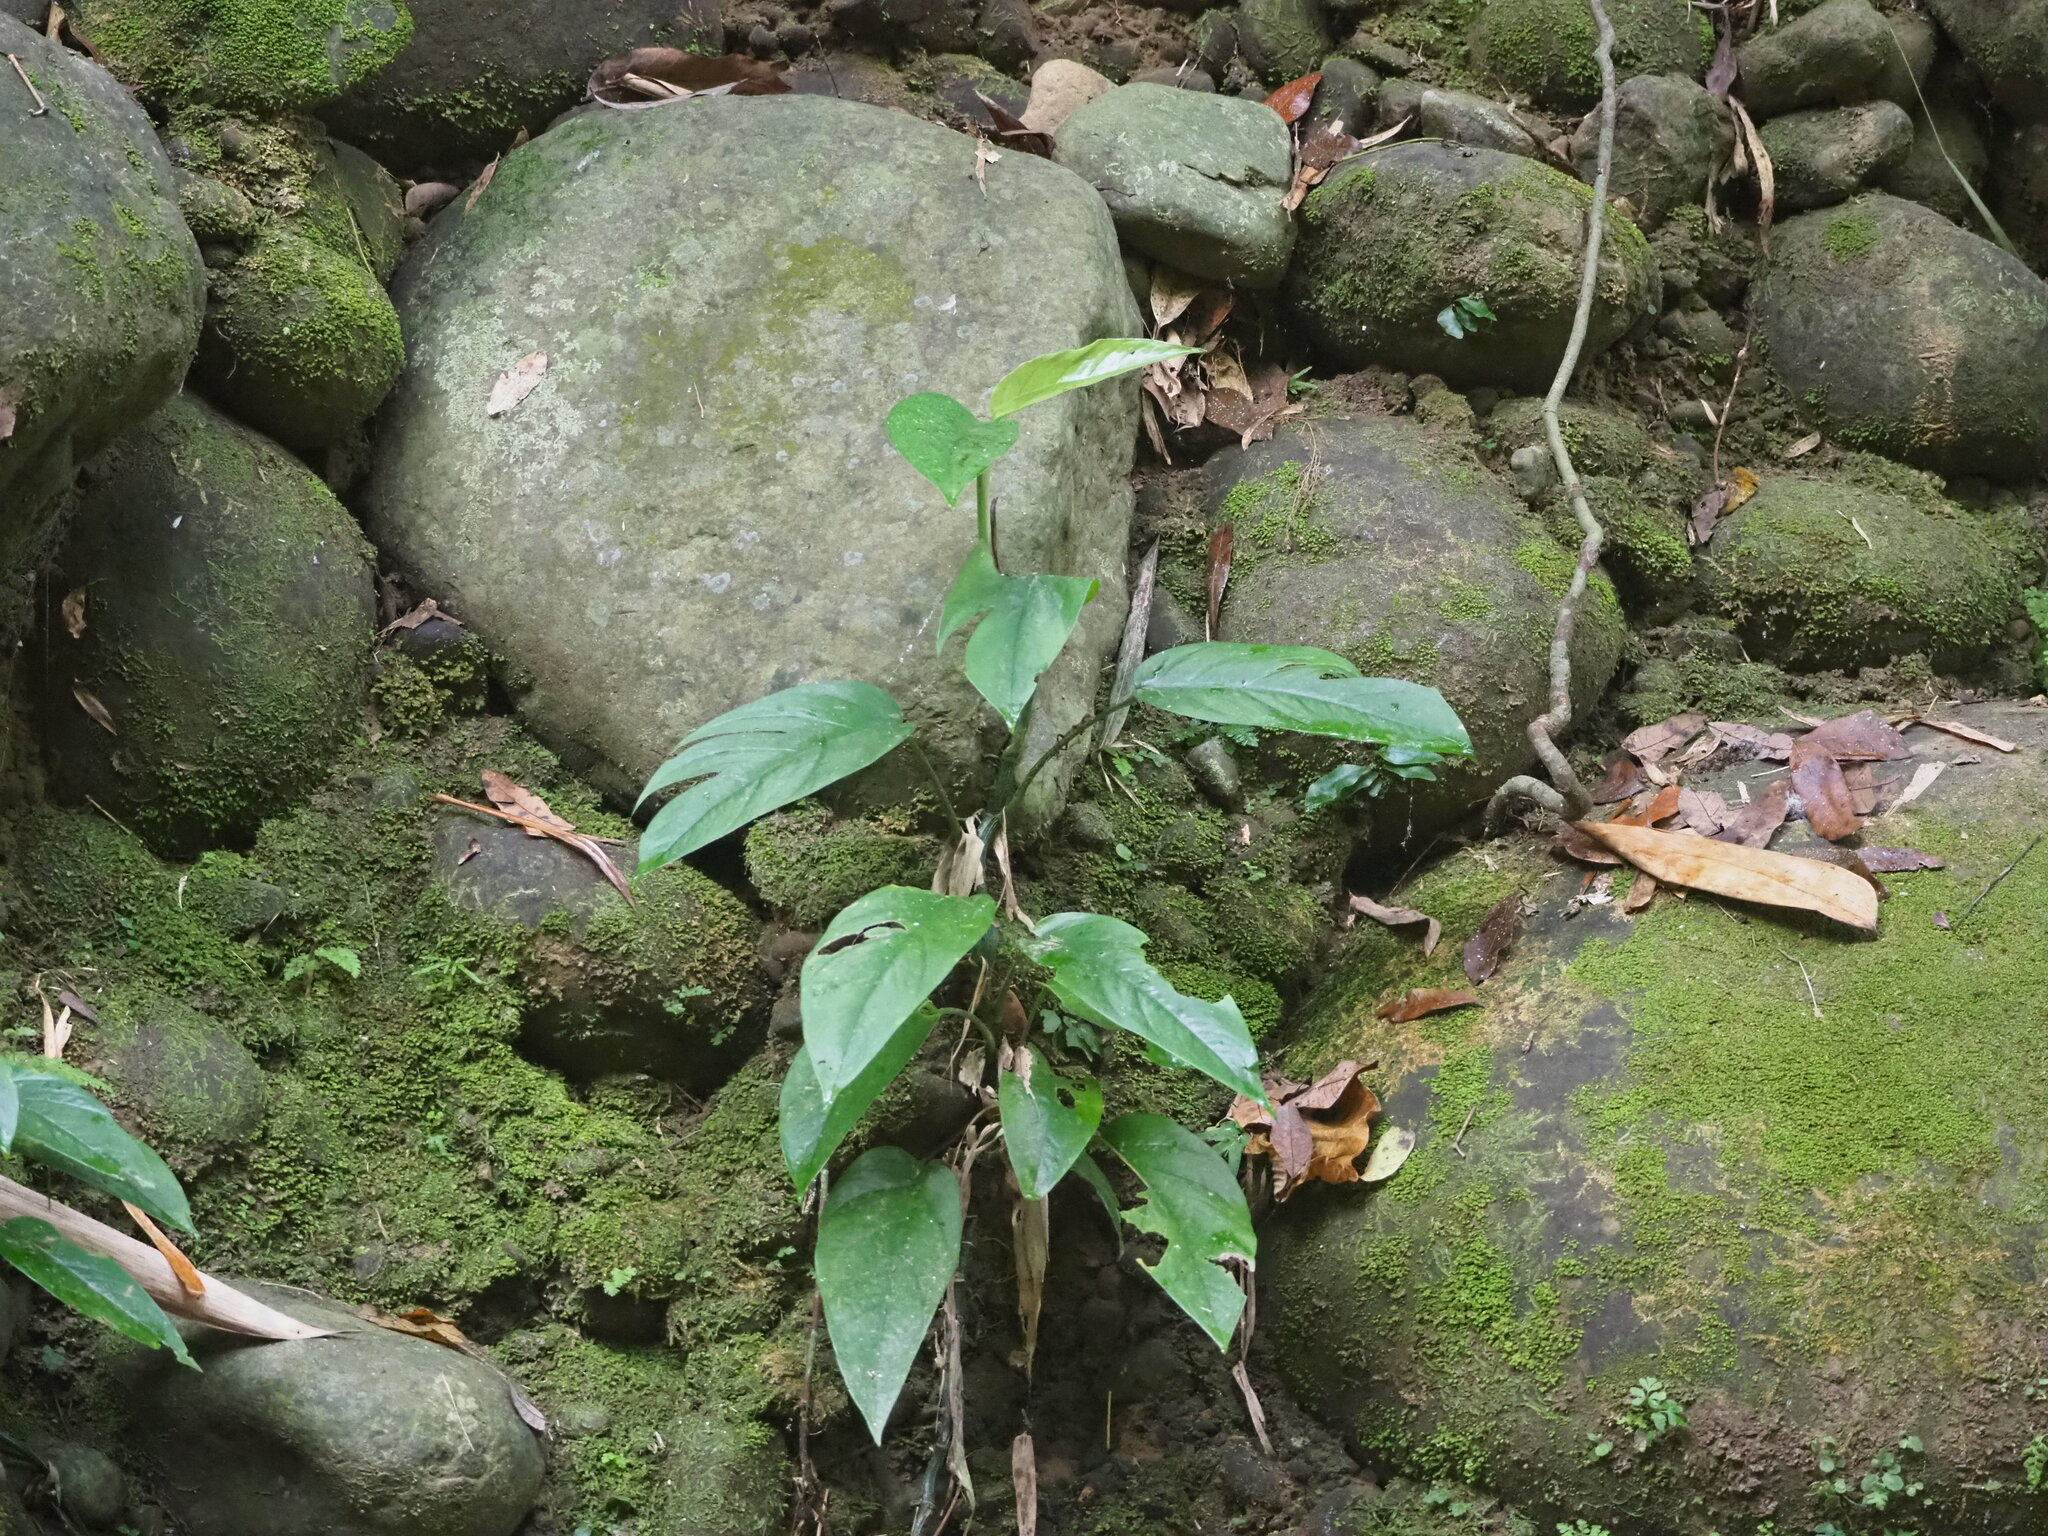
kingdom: Plantae
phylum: Tracheophyta
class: Liliopsida
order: Alismatales
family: Araceae
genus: Epipremnum
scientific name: Epipremnum pinnatum
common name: Centipede tongavine
